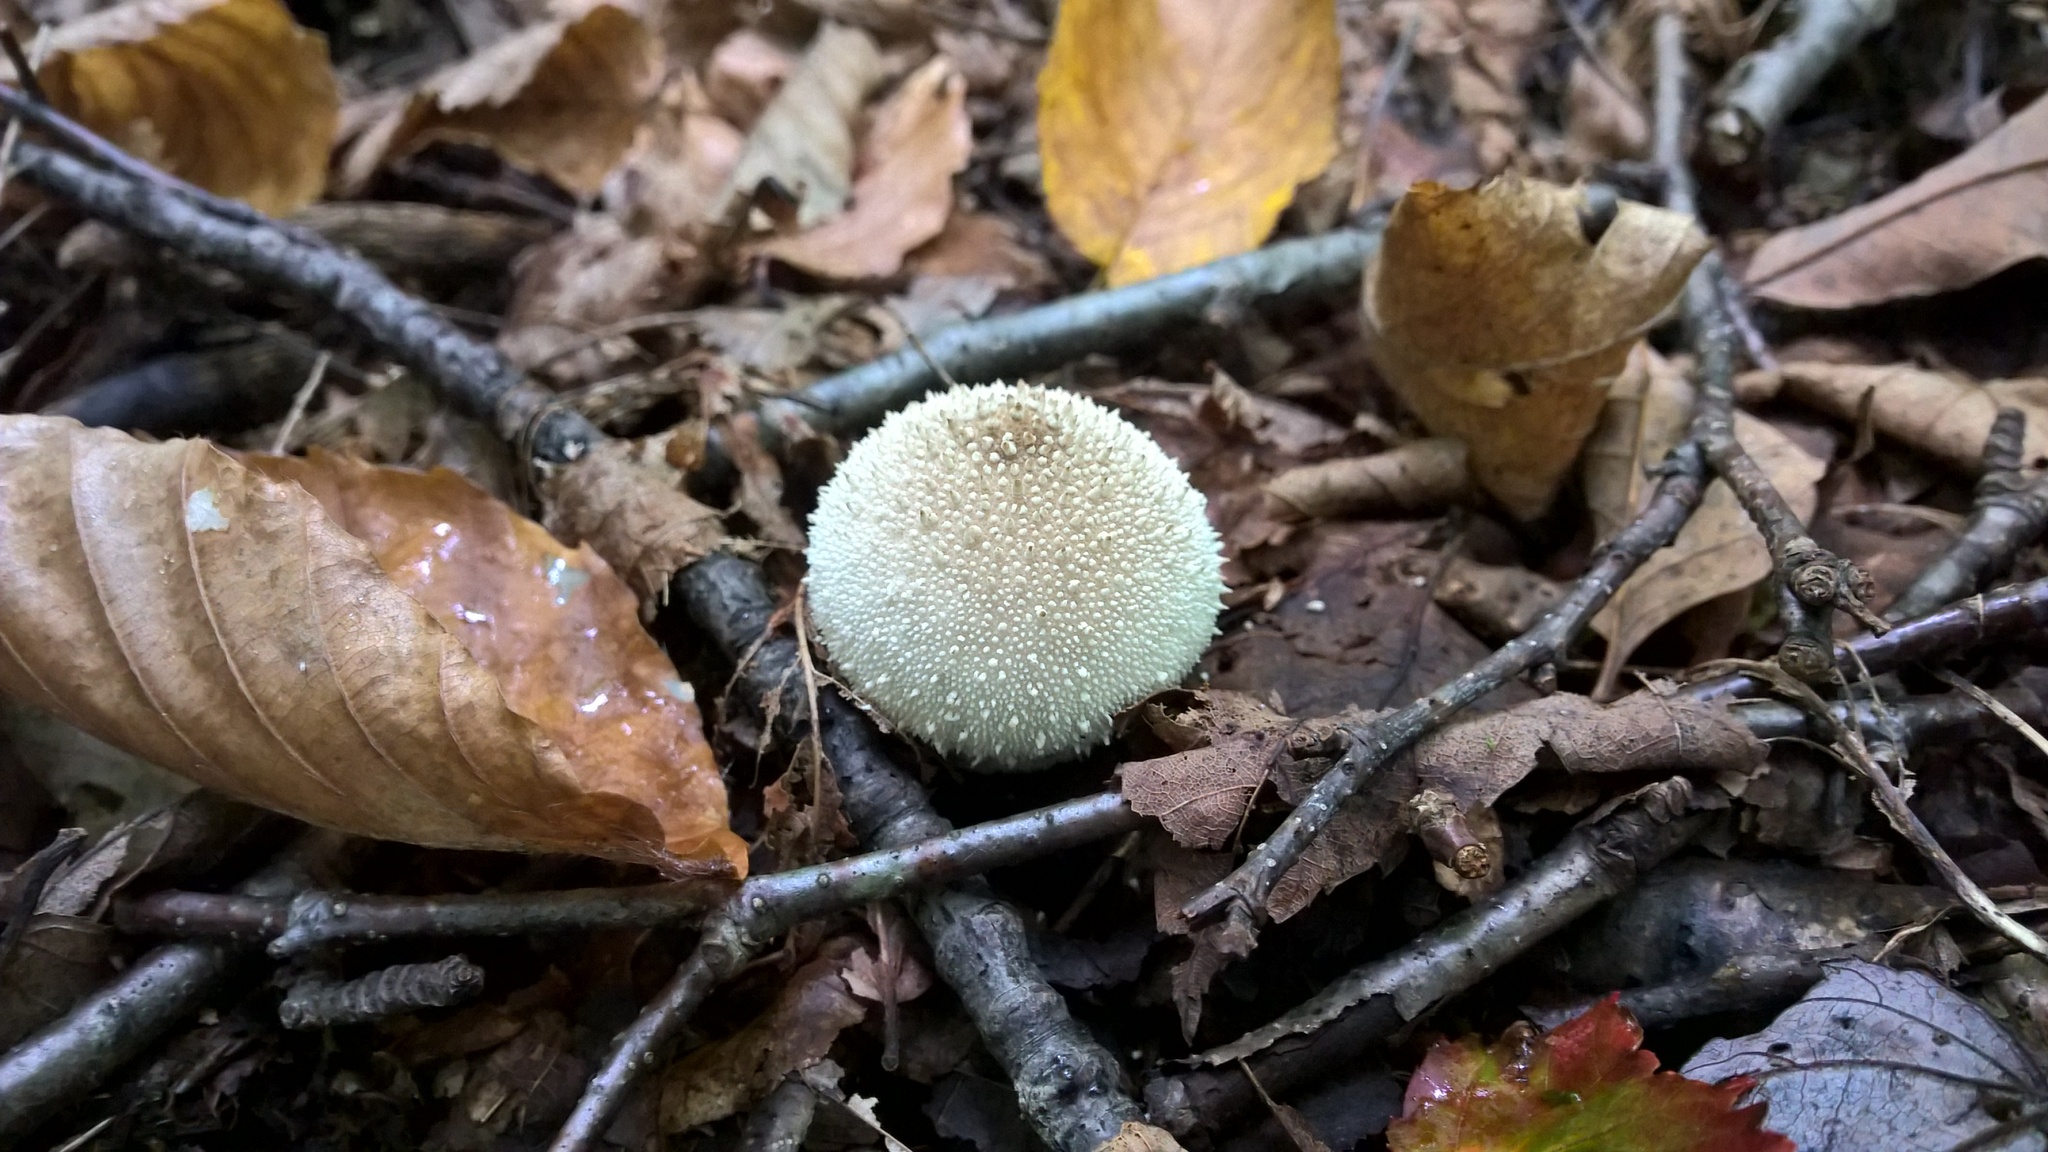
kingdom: Fungi
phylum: Basidiomycota
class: Agaricomycetes
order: Agaricales
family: Lycoperdaceae
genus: Lycoperdon
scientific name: Lycoperdon perlatum
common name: Common puffball
